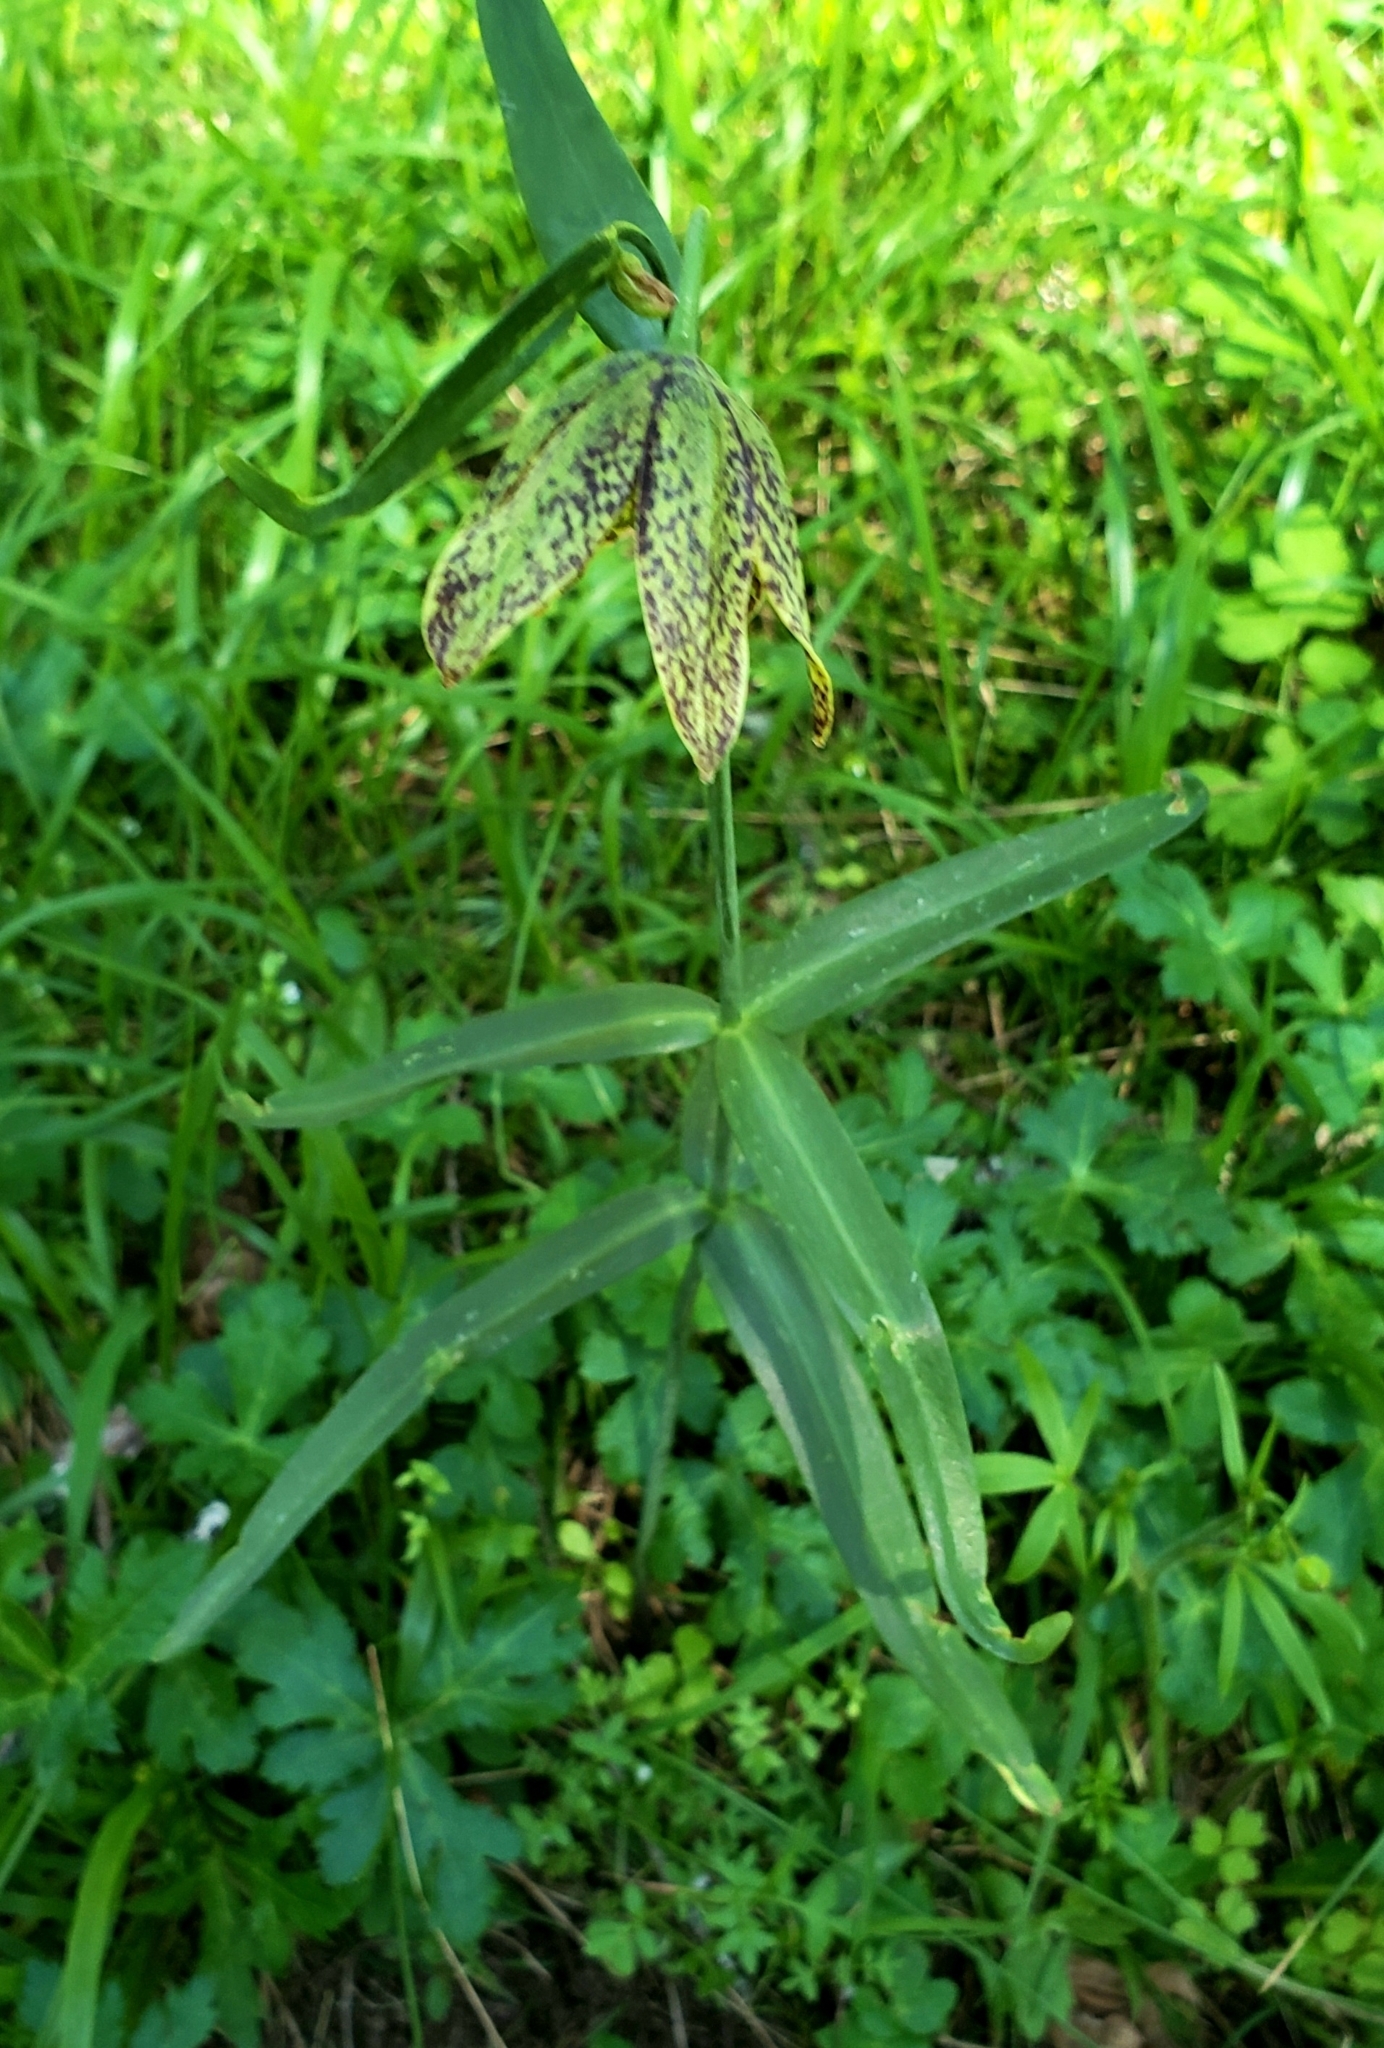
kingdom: Plantae
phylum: Tracheophyta
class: Liliopsida
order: Liliales
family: Liliaceae
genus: Fritillaria
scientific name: Fritillaria affinis
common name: Ojai fritillary
